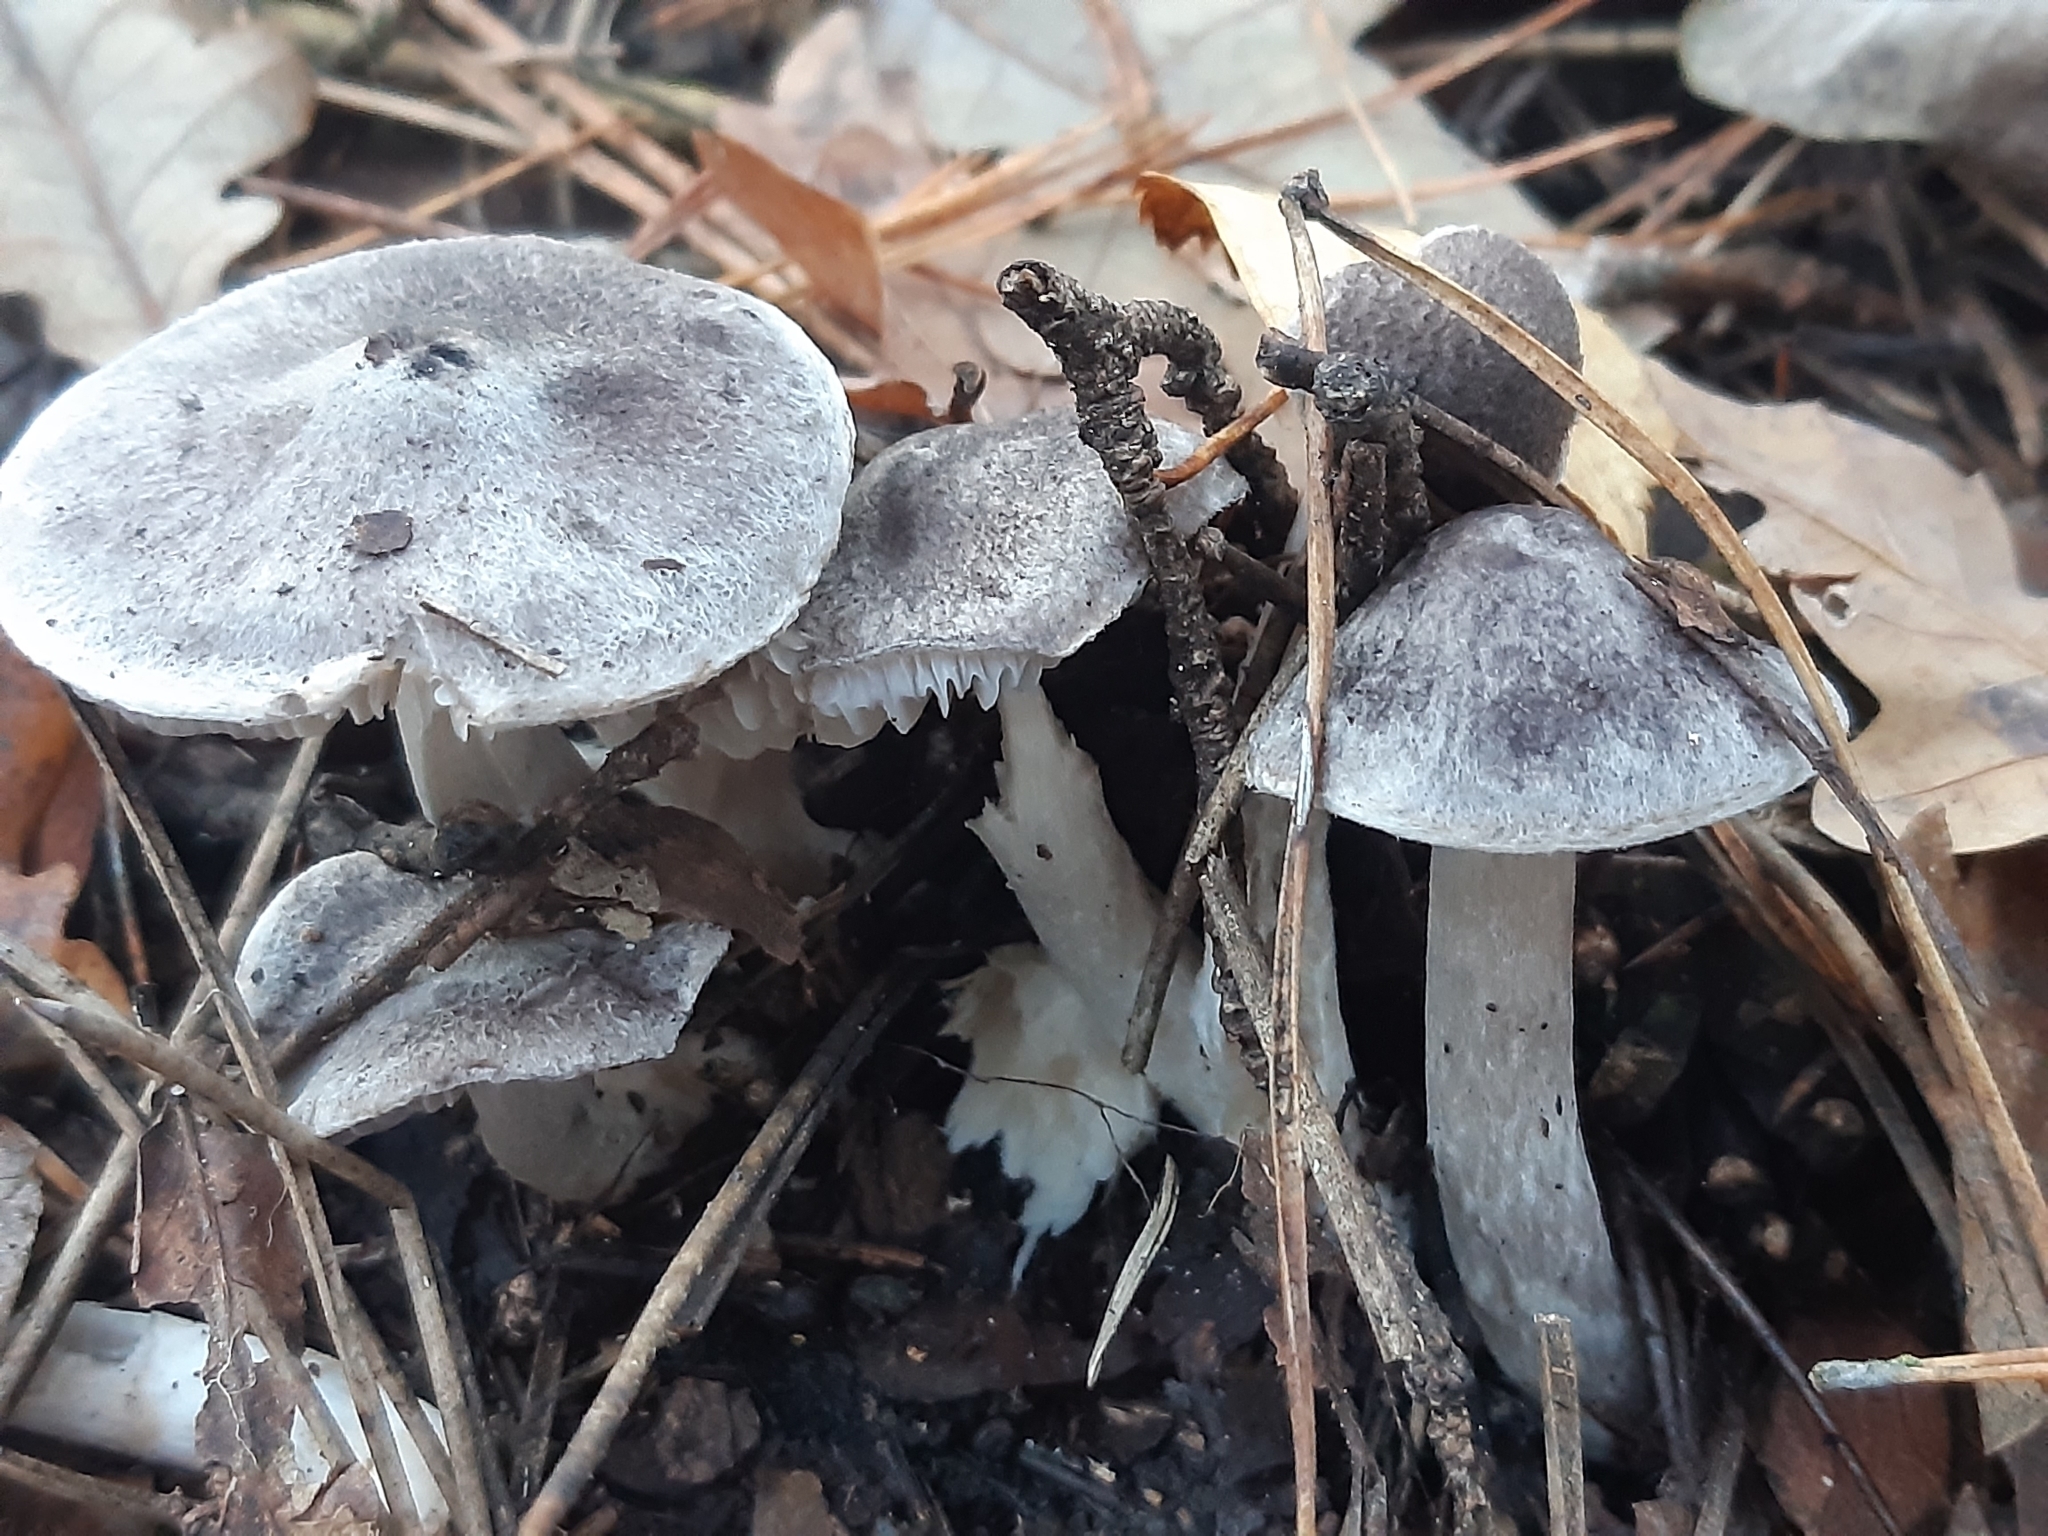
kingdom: Fungi
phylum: Basidiomycota
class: Agaricomycetes
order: Agaricales
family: Tricholomataceae
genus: Tricholoma
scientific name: Tricholoma terreum
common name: Grey knight
